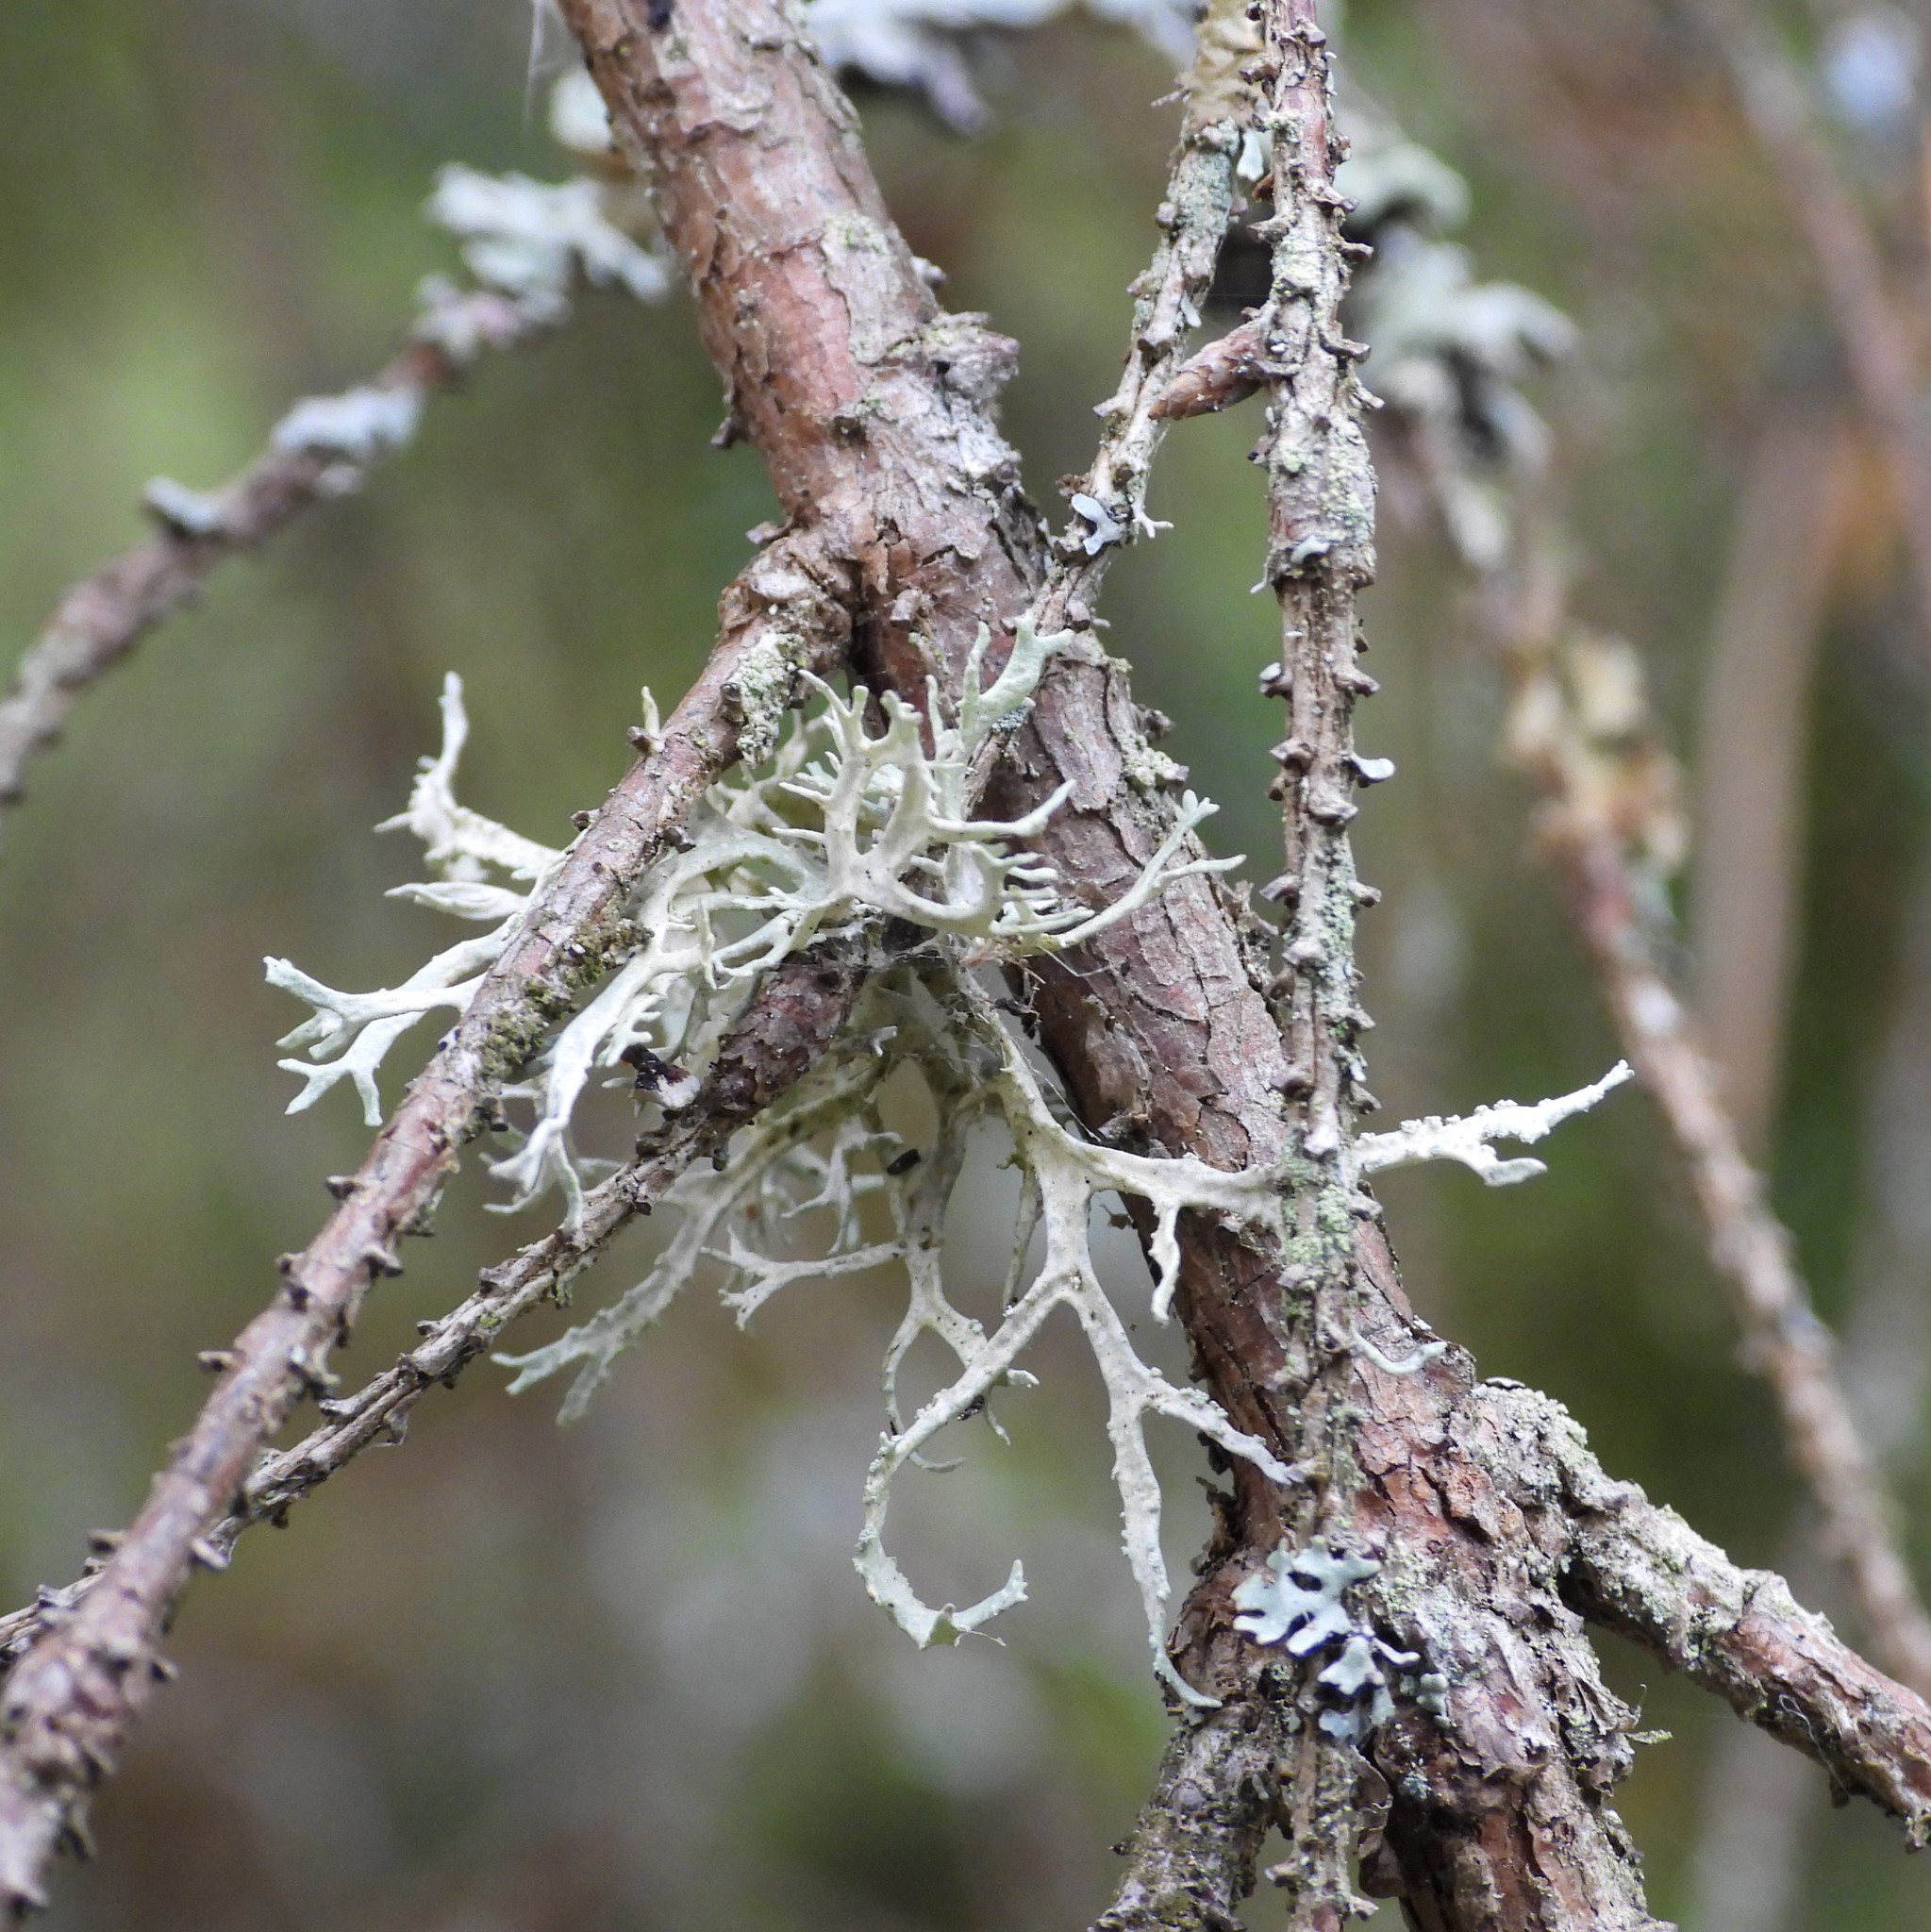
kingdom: Fungi
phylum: Ascomycota
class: Lecanoromycetes
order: Lecanorales
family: Ramalinaceae
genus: Ramalina
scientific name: Ramalina farinacea
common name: Farinose cartilage lichen
